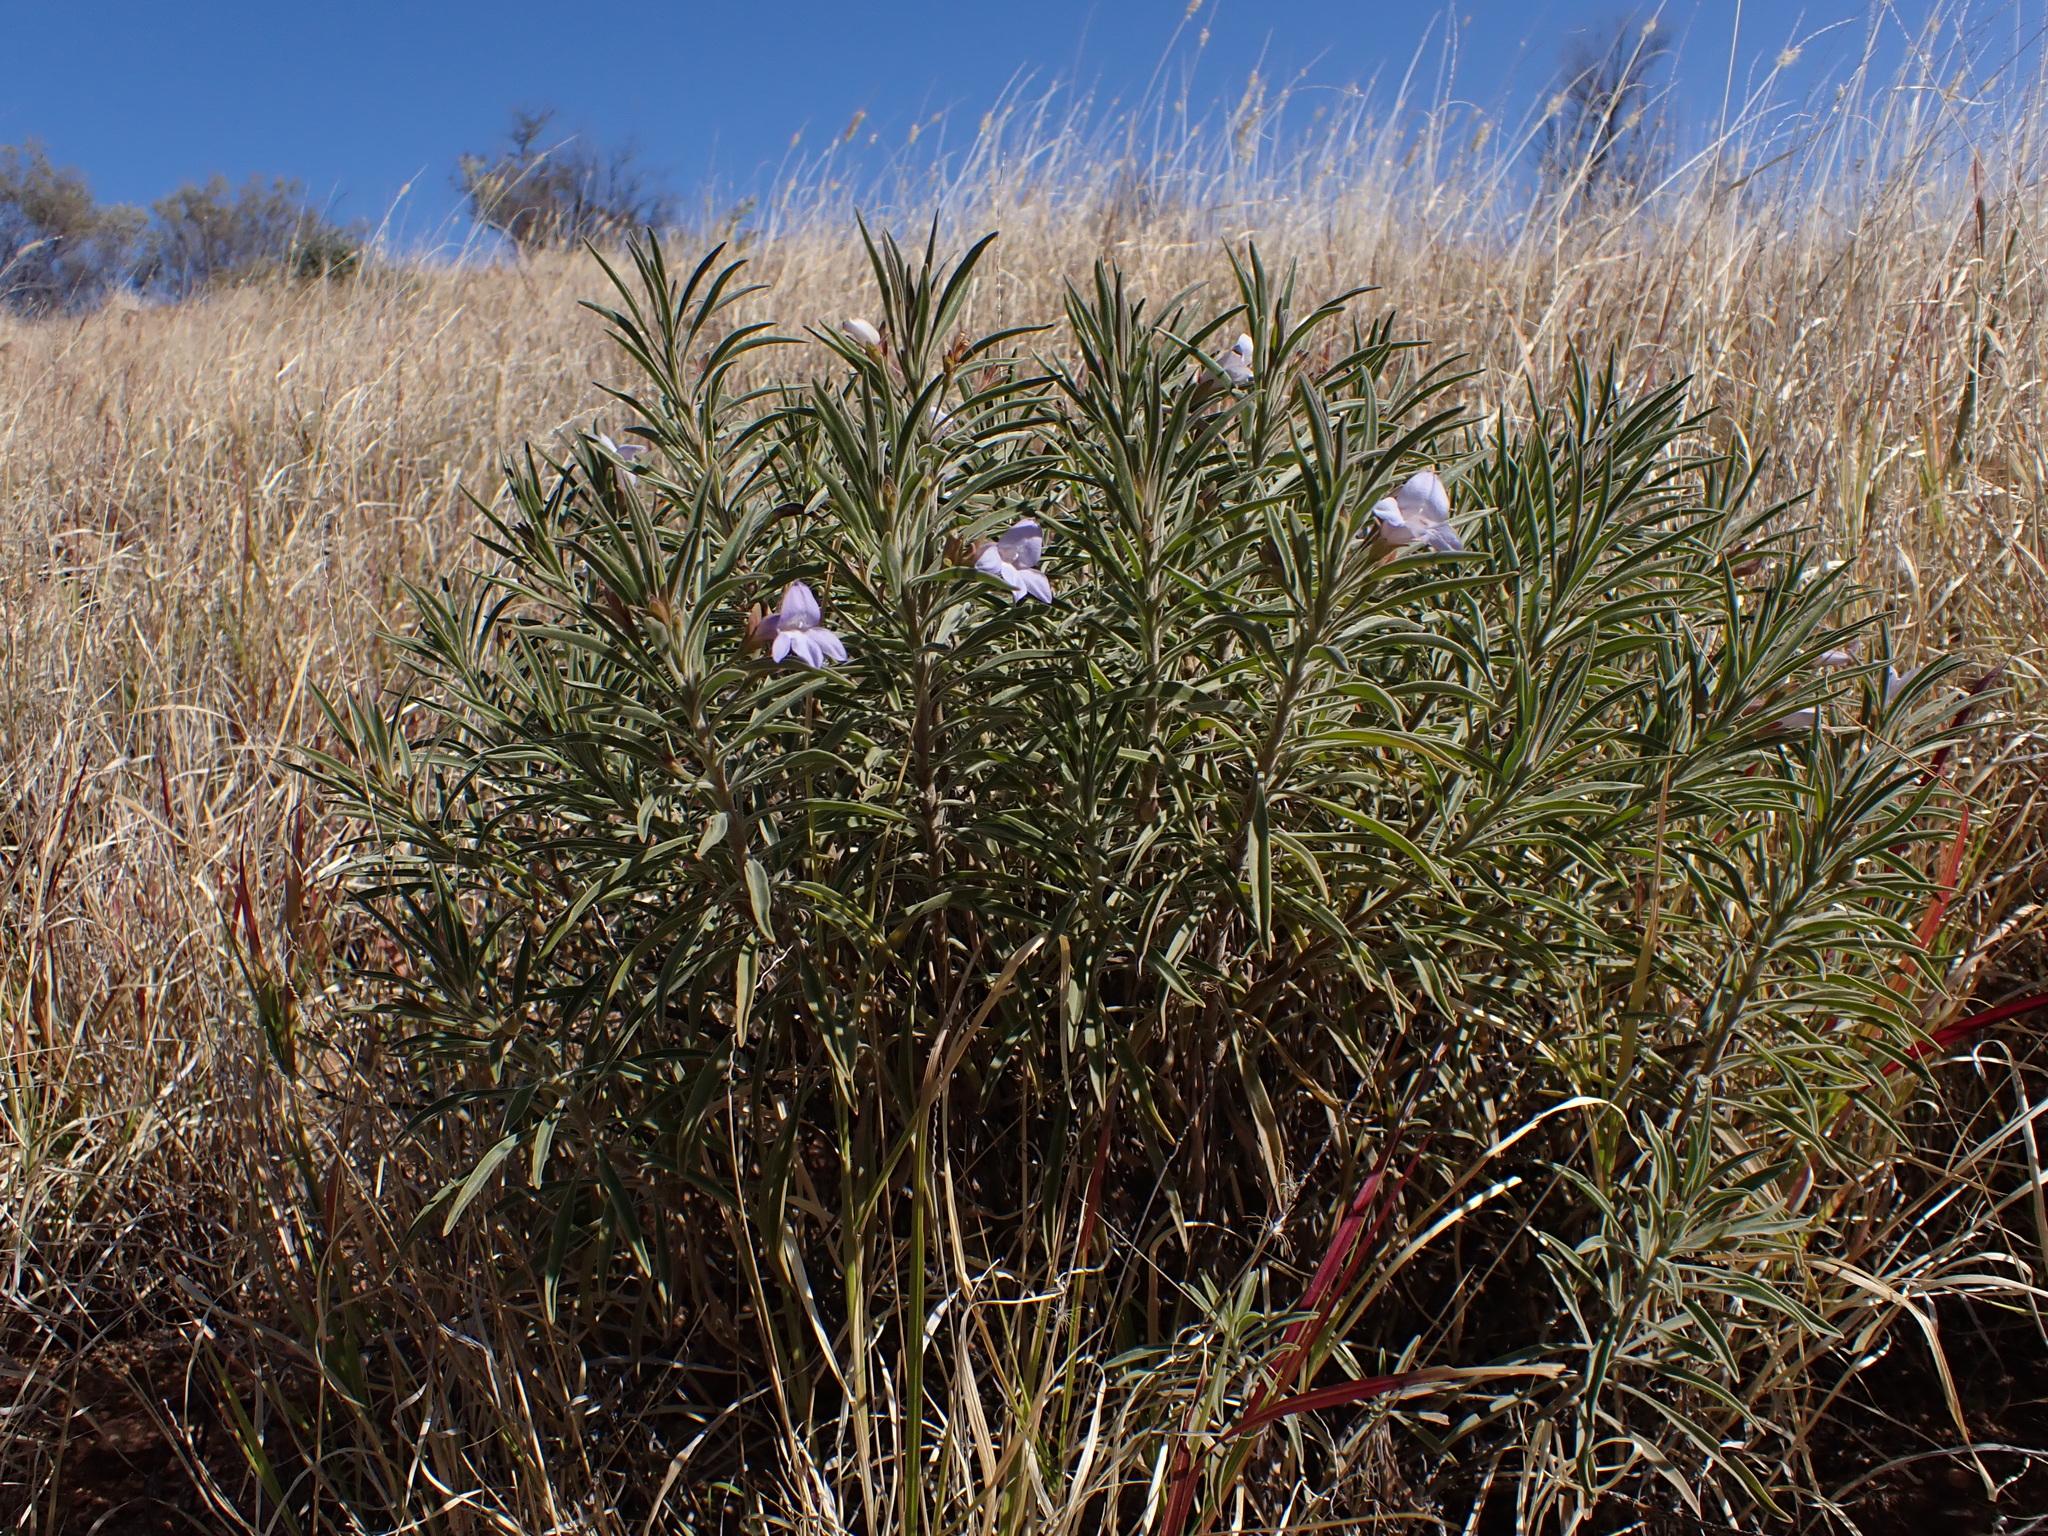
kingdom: Plantae
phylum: Tracheophyta
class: Magnoliopsida
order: Lamiales
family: Scrophulariaceae
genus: Eremophila
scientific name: Eremophila freelingii
